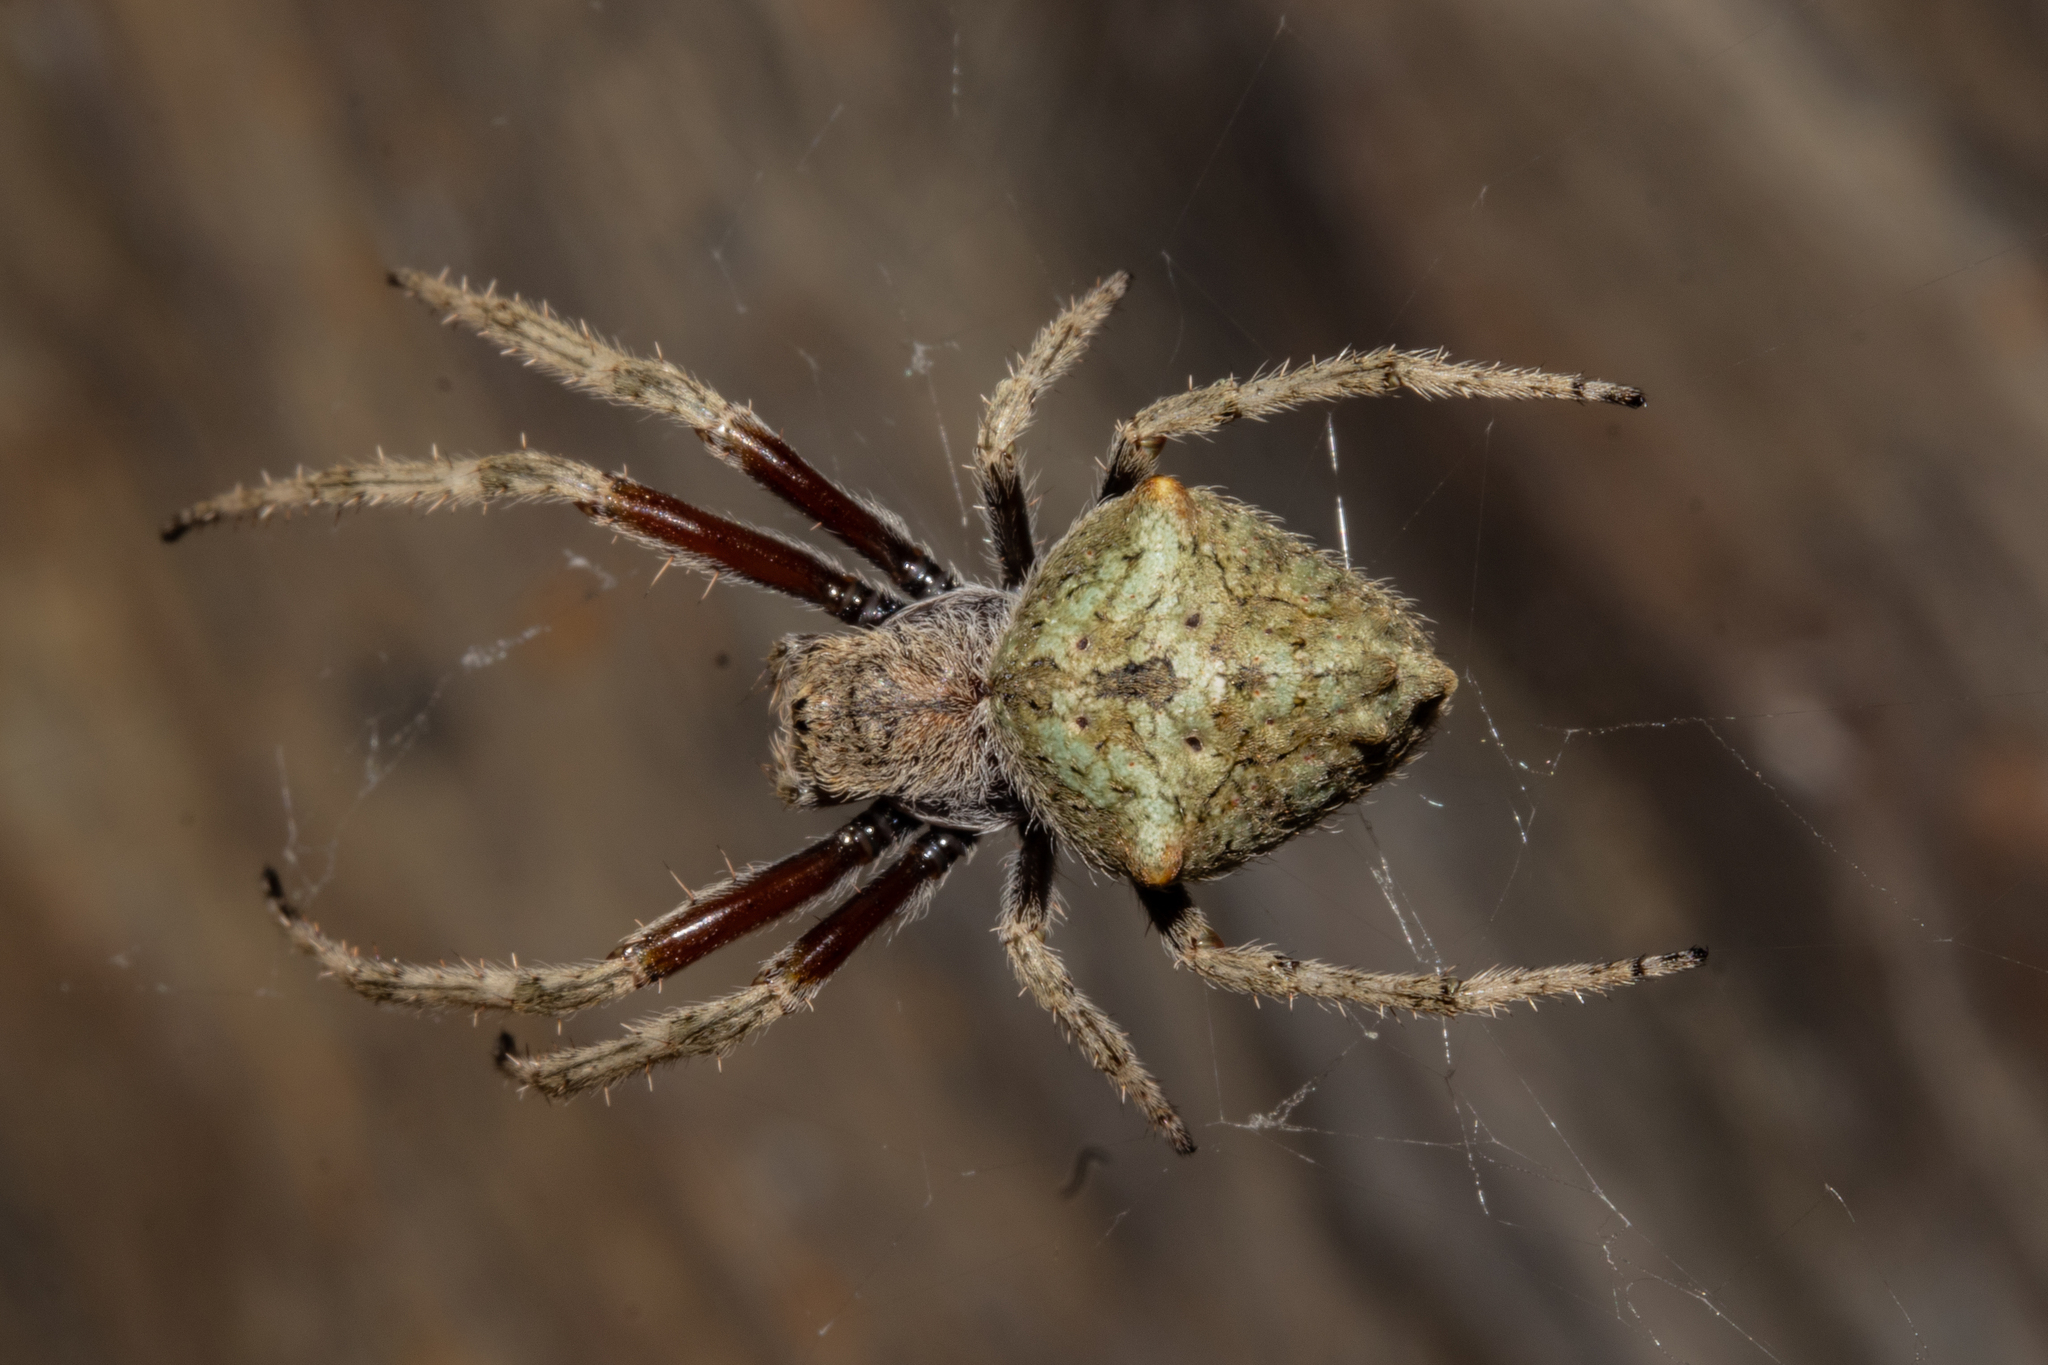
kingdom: Animalia
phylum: Arthropoda
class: Arachnida
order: Araneae
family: Araneidae
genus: Eriophora
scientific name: Eriophora pustulosa
